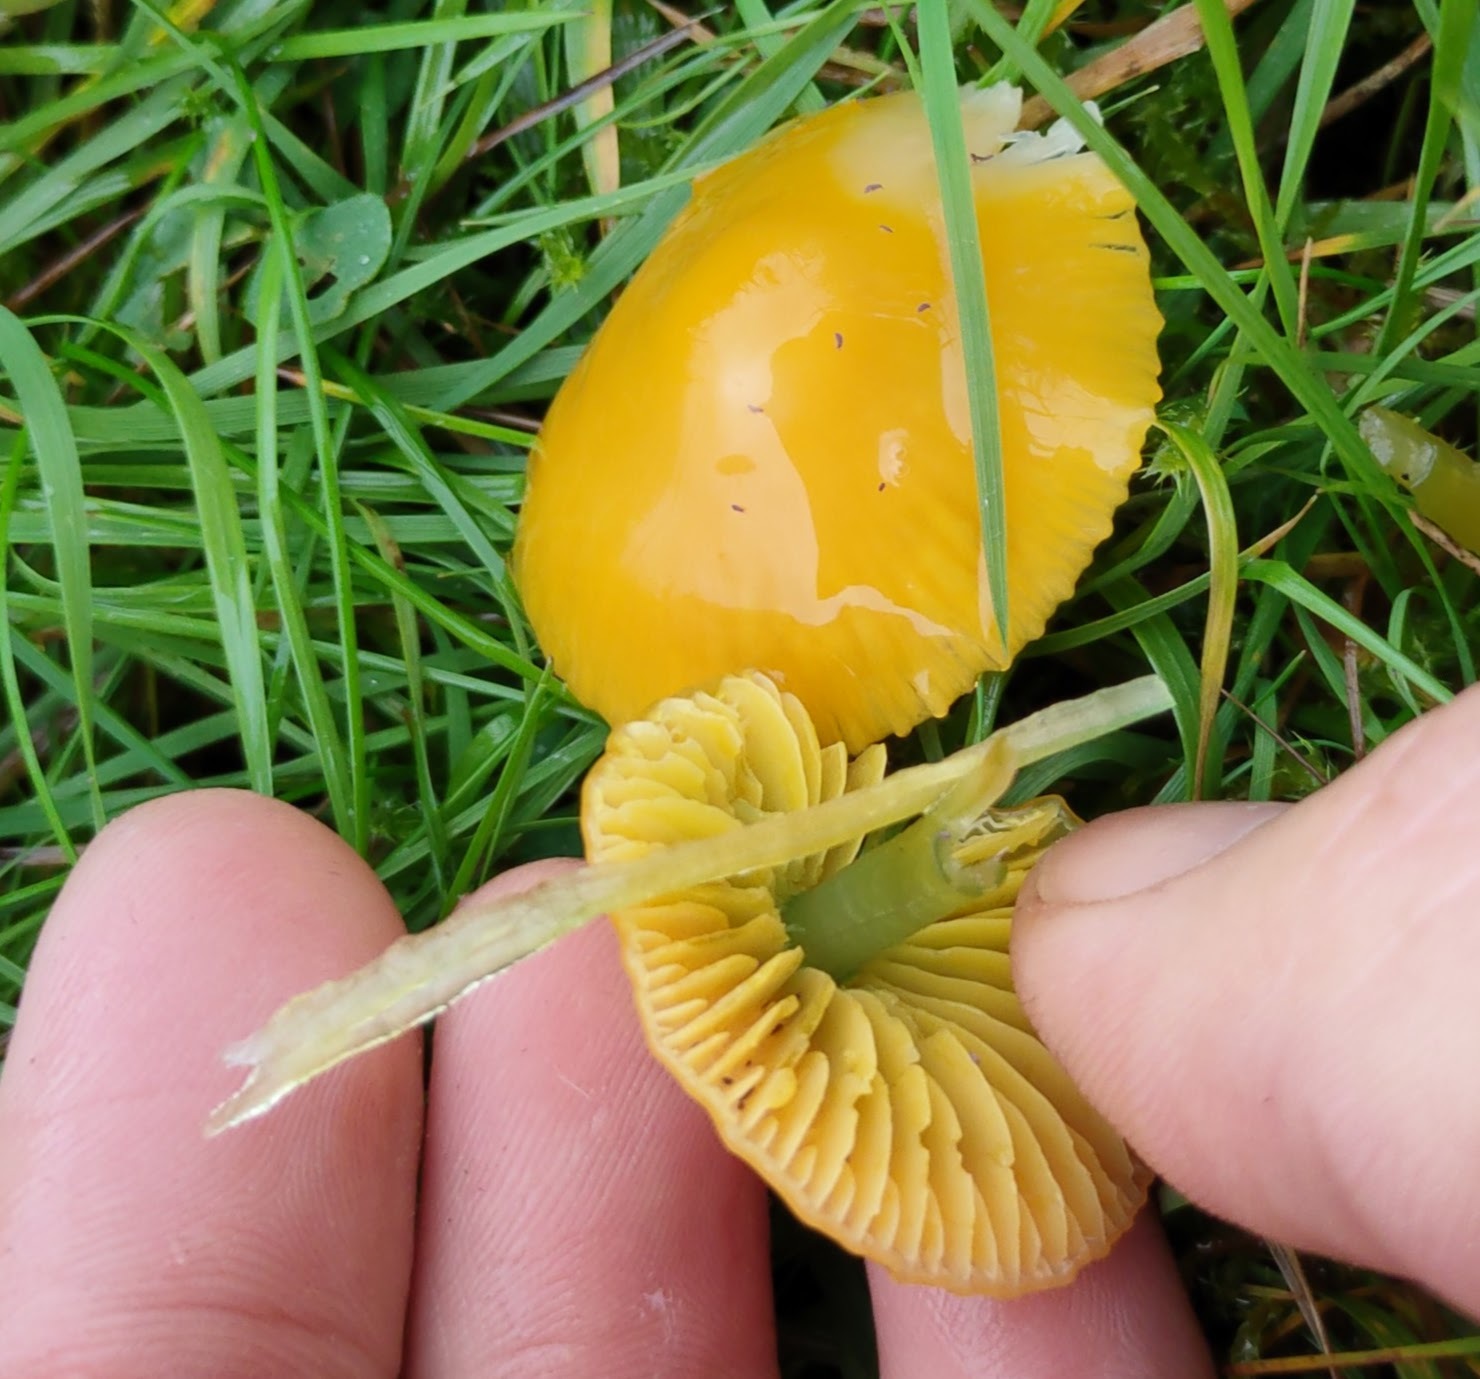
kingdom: Fungi
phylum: Basidiomycota
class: Agaricomycetes
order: Agaricales
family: Hygrophoraceae
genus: Gliophorus
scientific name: Gliophorus psittacinus
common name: Parrot wax-cap
